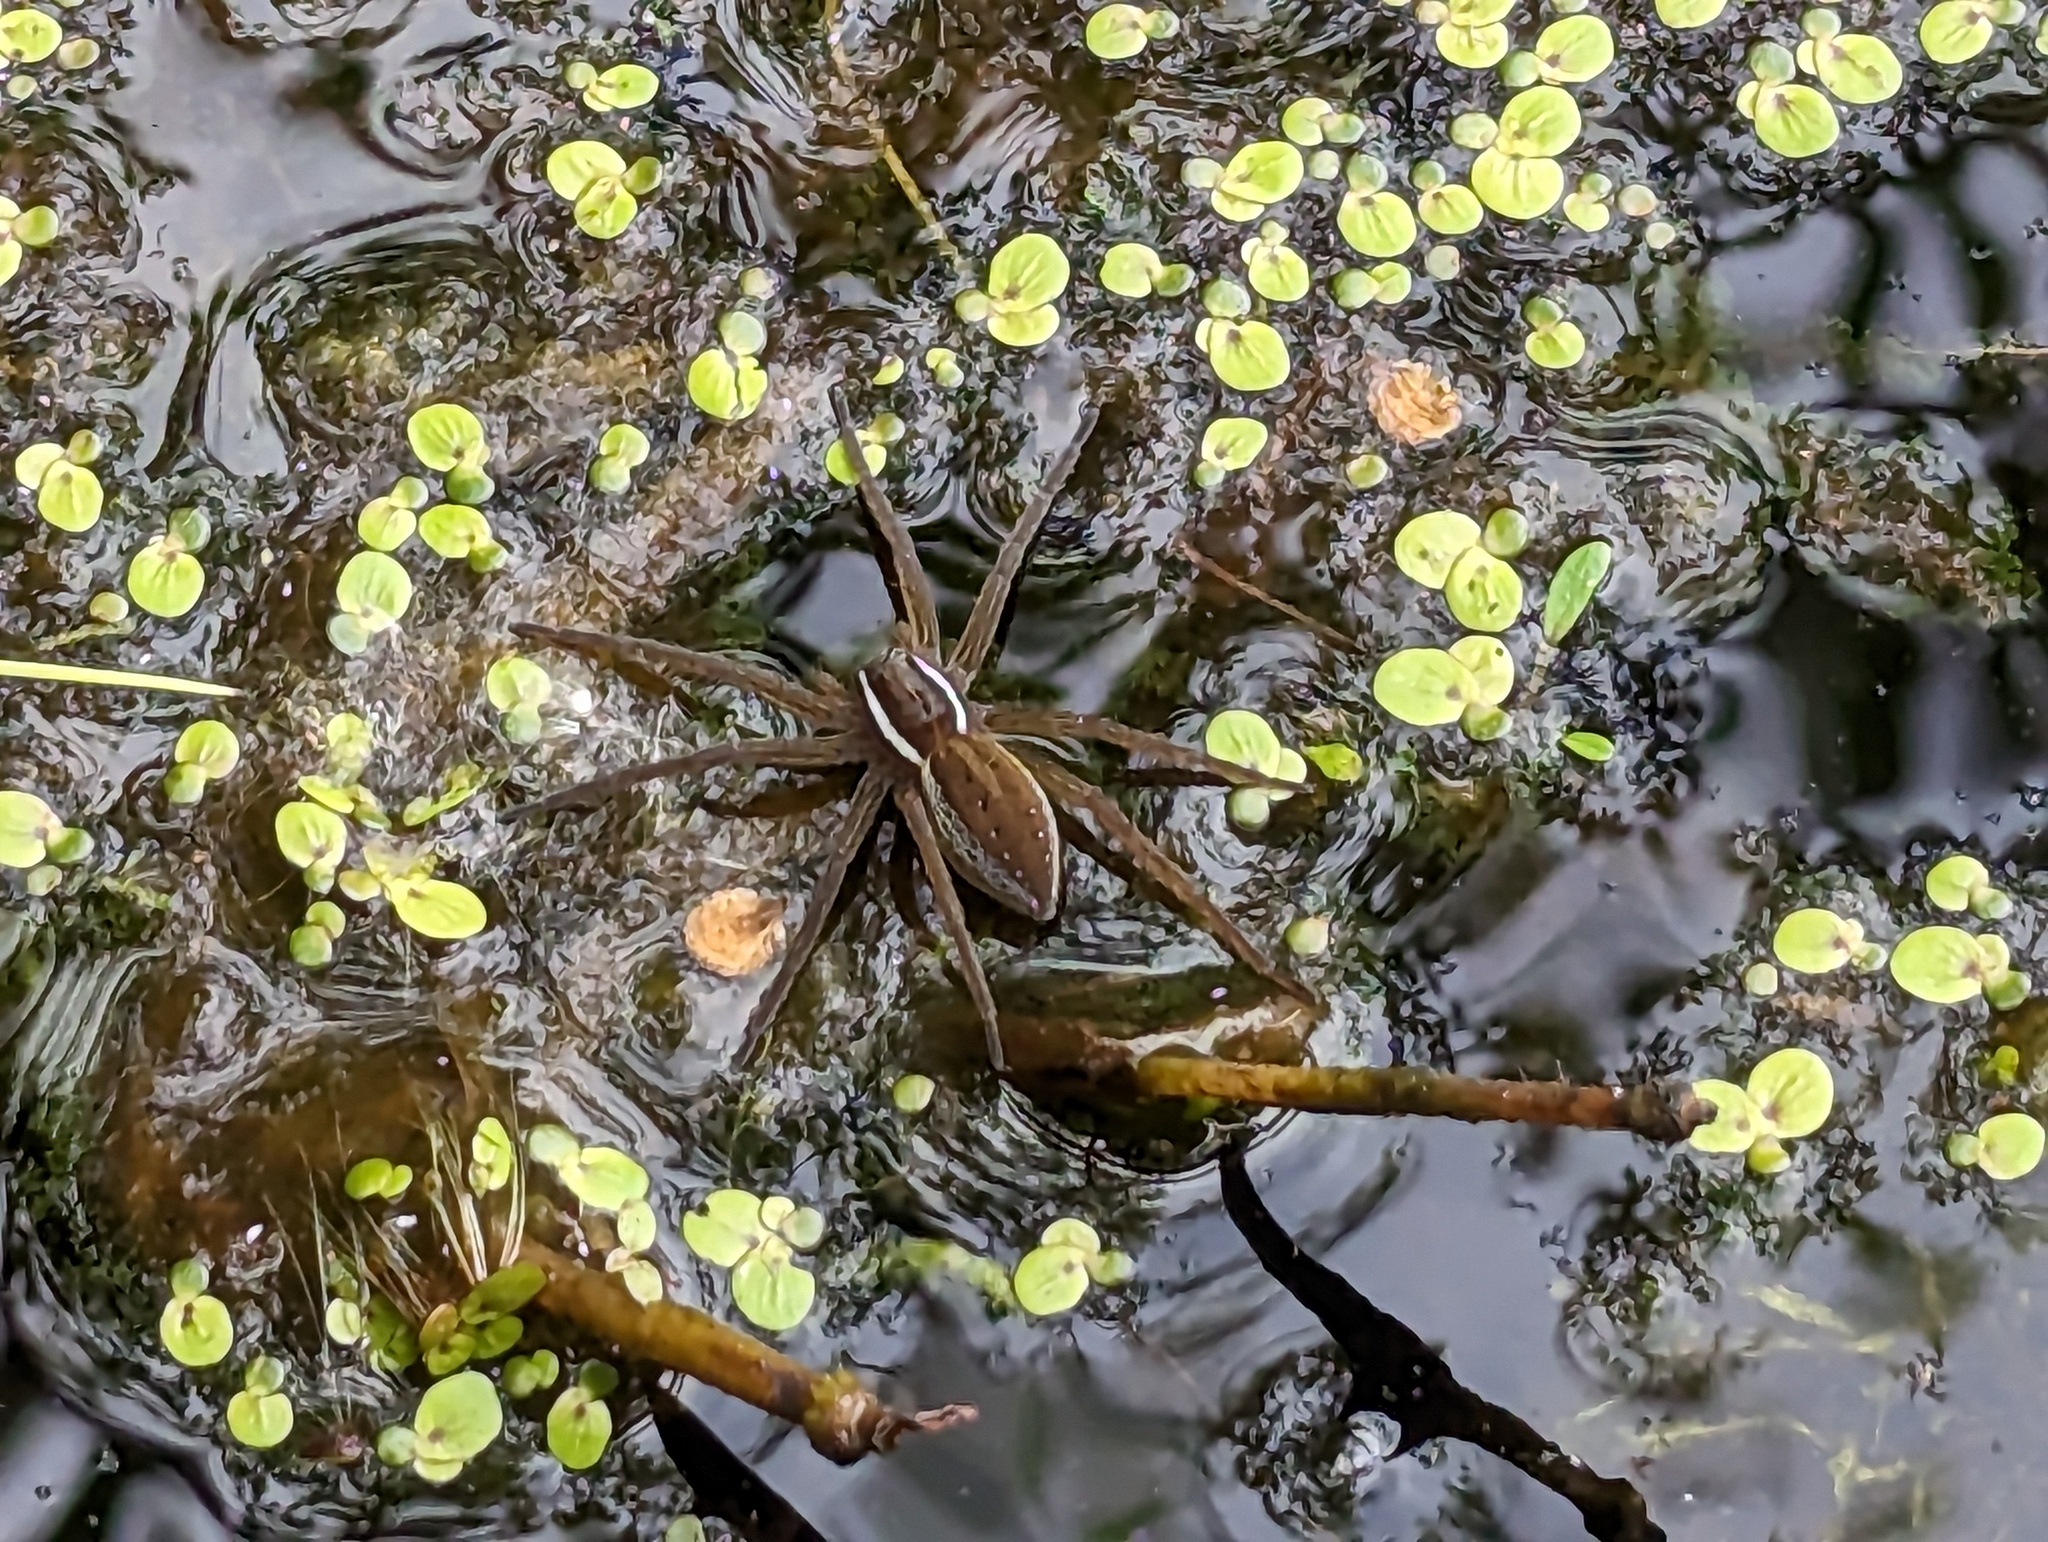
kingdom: Animalia
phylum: Arthropoda
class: Arachnida
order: Araneae
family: Pisauridae
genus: Dolomedes
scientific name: Dolomedes triton
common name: Six-spotted fishing spider
